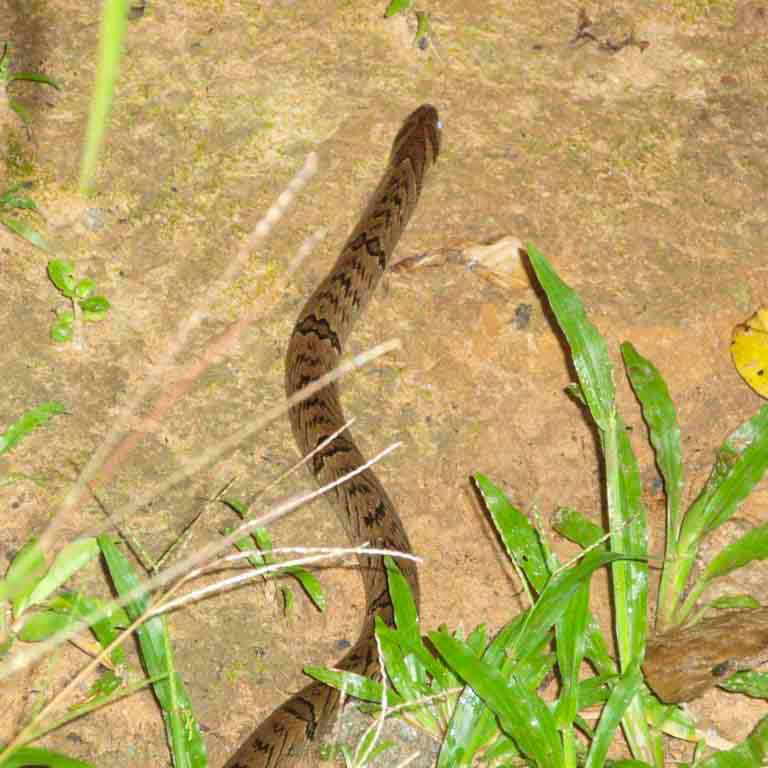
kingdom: Animalia
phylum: Chordata
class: Squamata
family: Colubridae
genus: Oligodon
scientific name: Oligodon fasciolatus
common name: Fasciolated kukri snake
